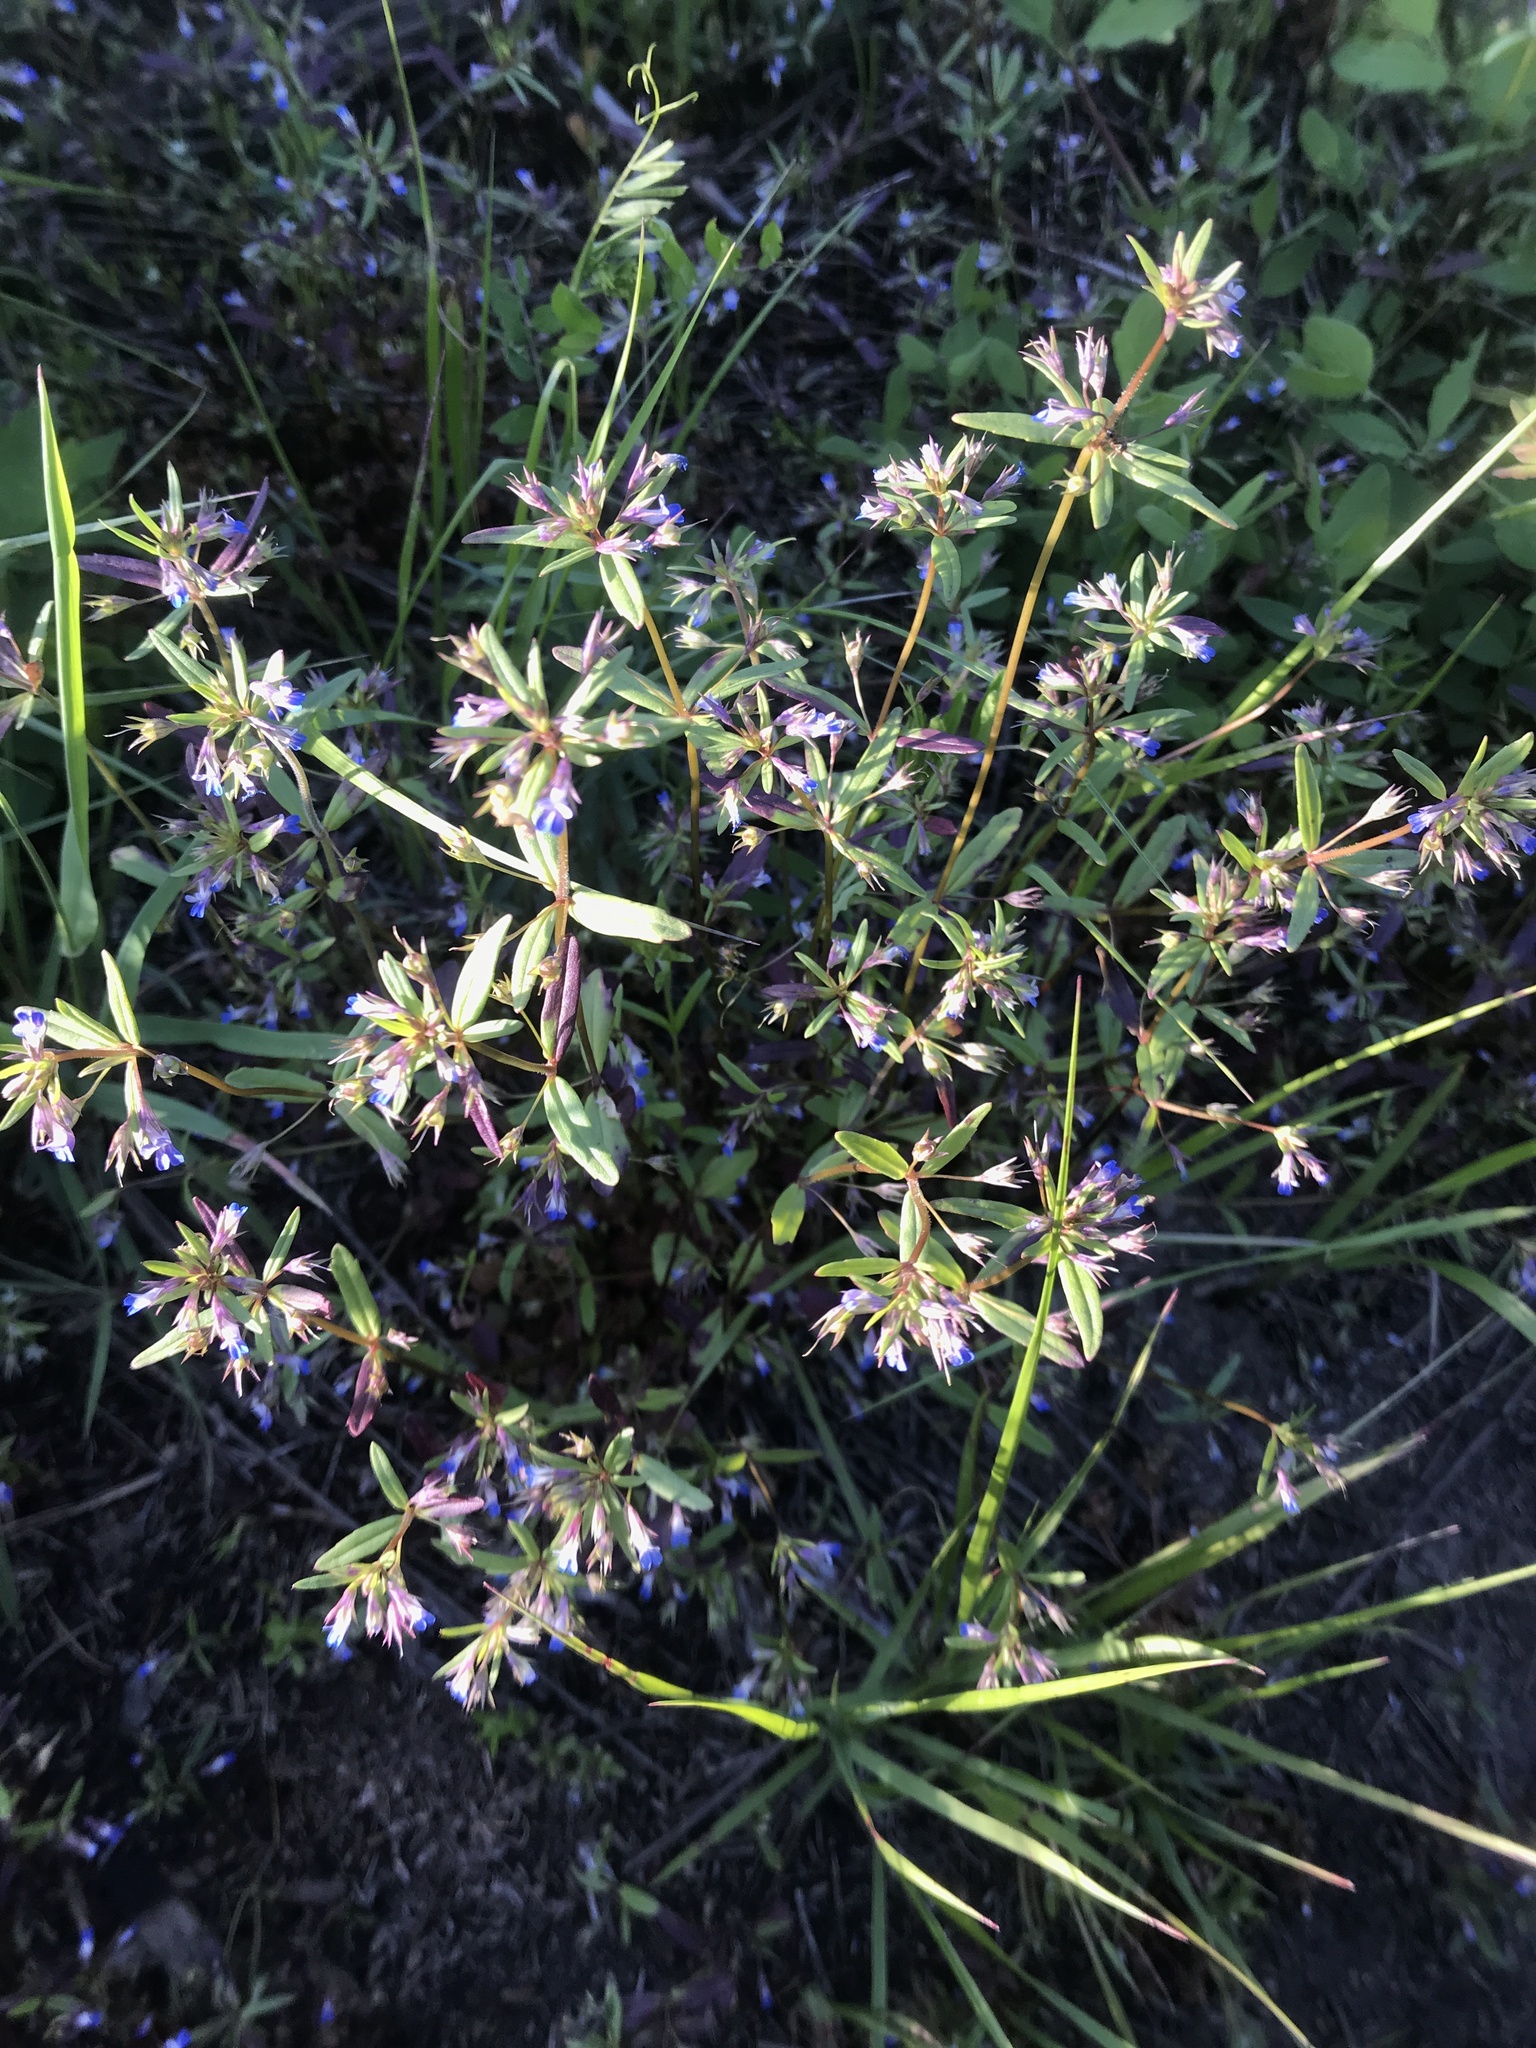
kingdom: Plantae
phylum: Tracheophyta
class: Magnoliopsida
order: Lamiales
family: Plantaginaceae
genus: Collinsia
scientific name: Collinsia parviflora
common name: Blue-lips
